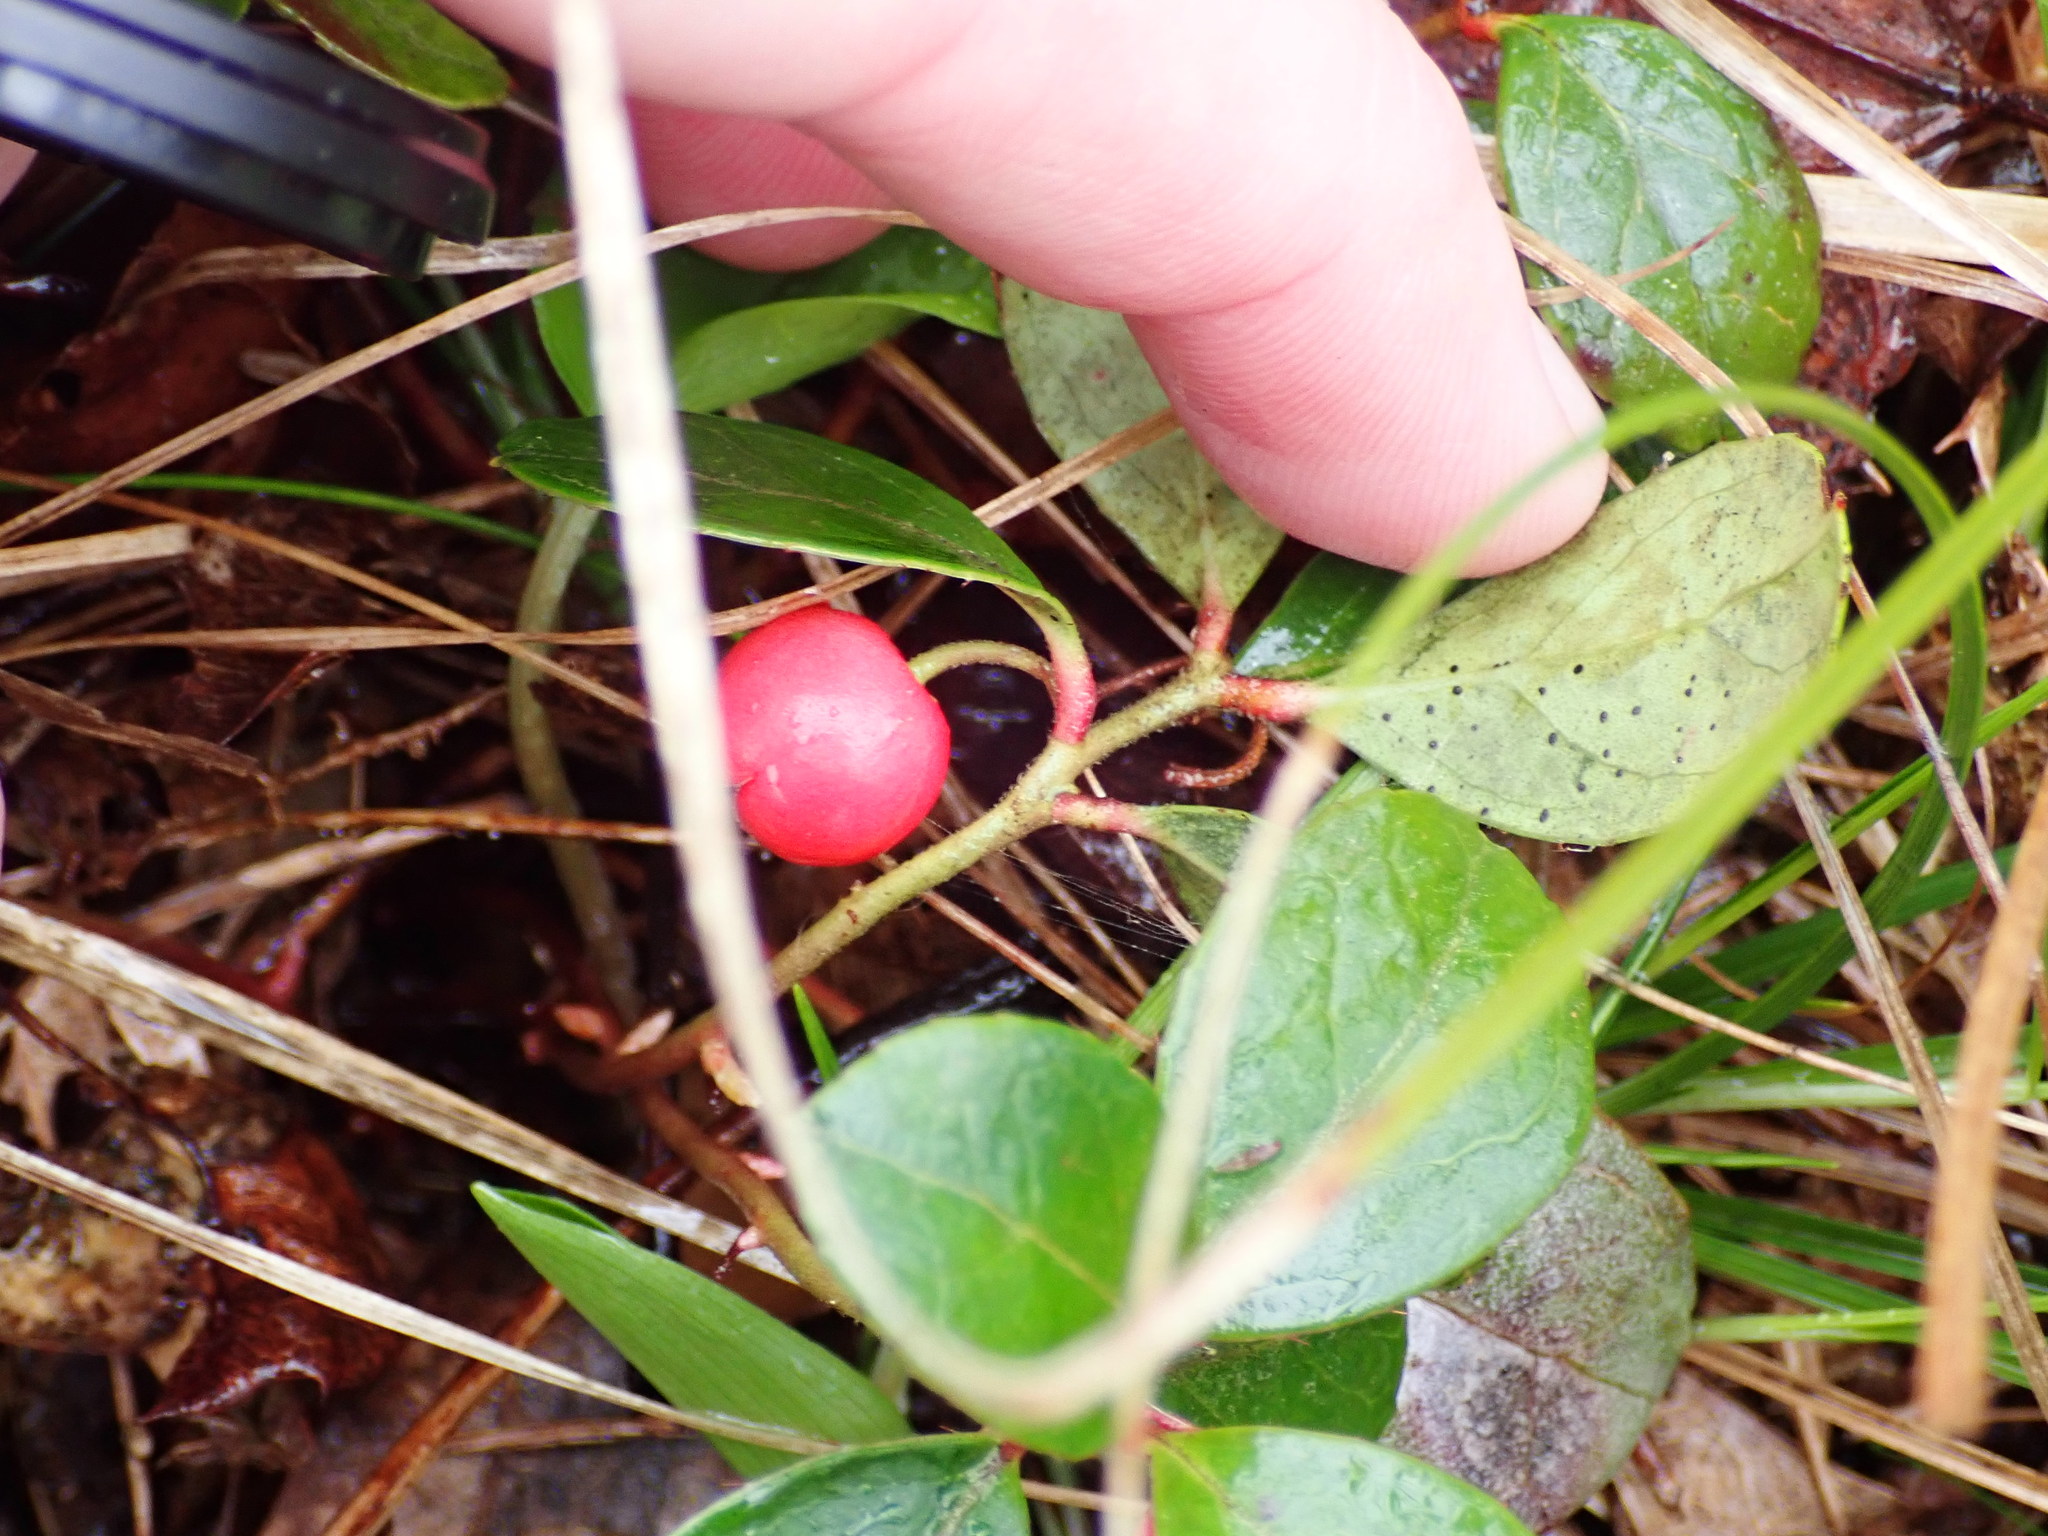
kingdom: Plantae
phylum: Tracheophyta
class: Magnoliopsida
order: Ericales
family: Ericaceae
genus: Gaultheria
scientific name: Gaultheria procumbens
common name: Checkerberry
